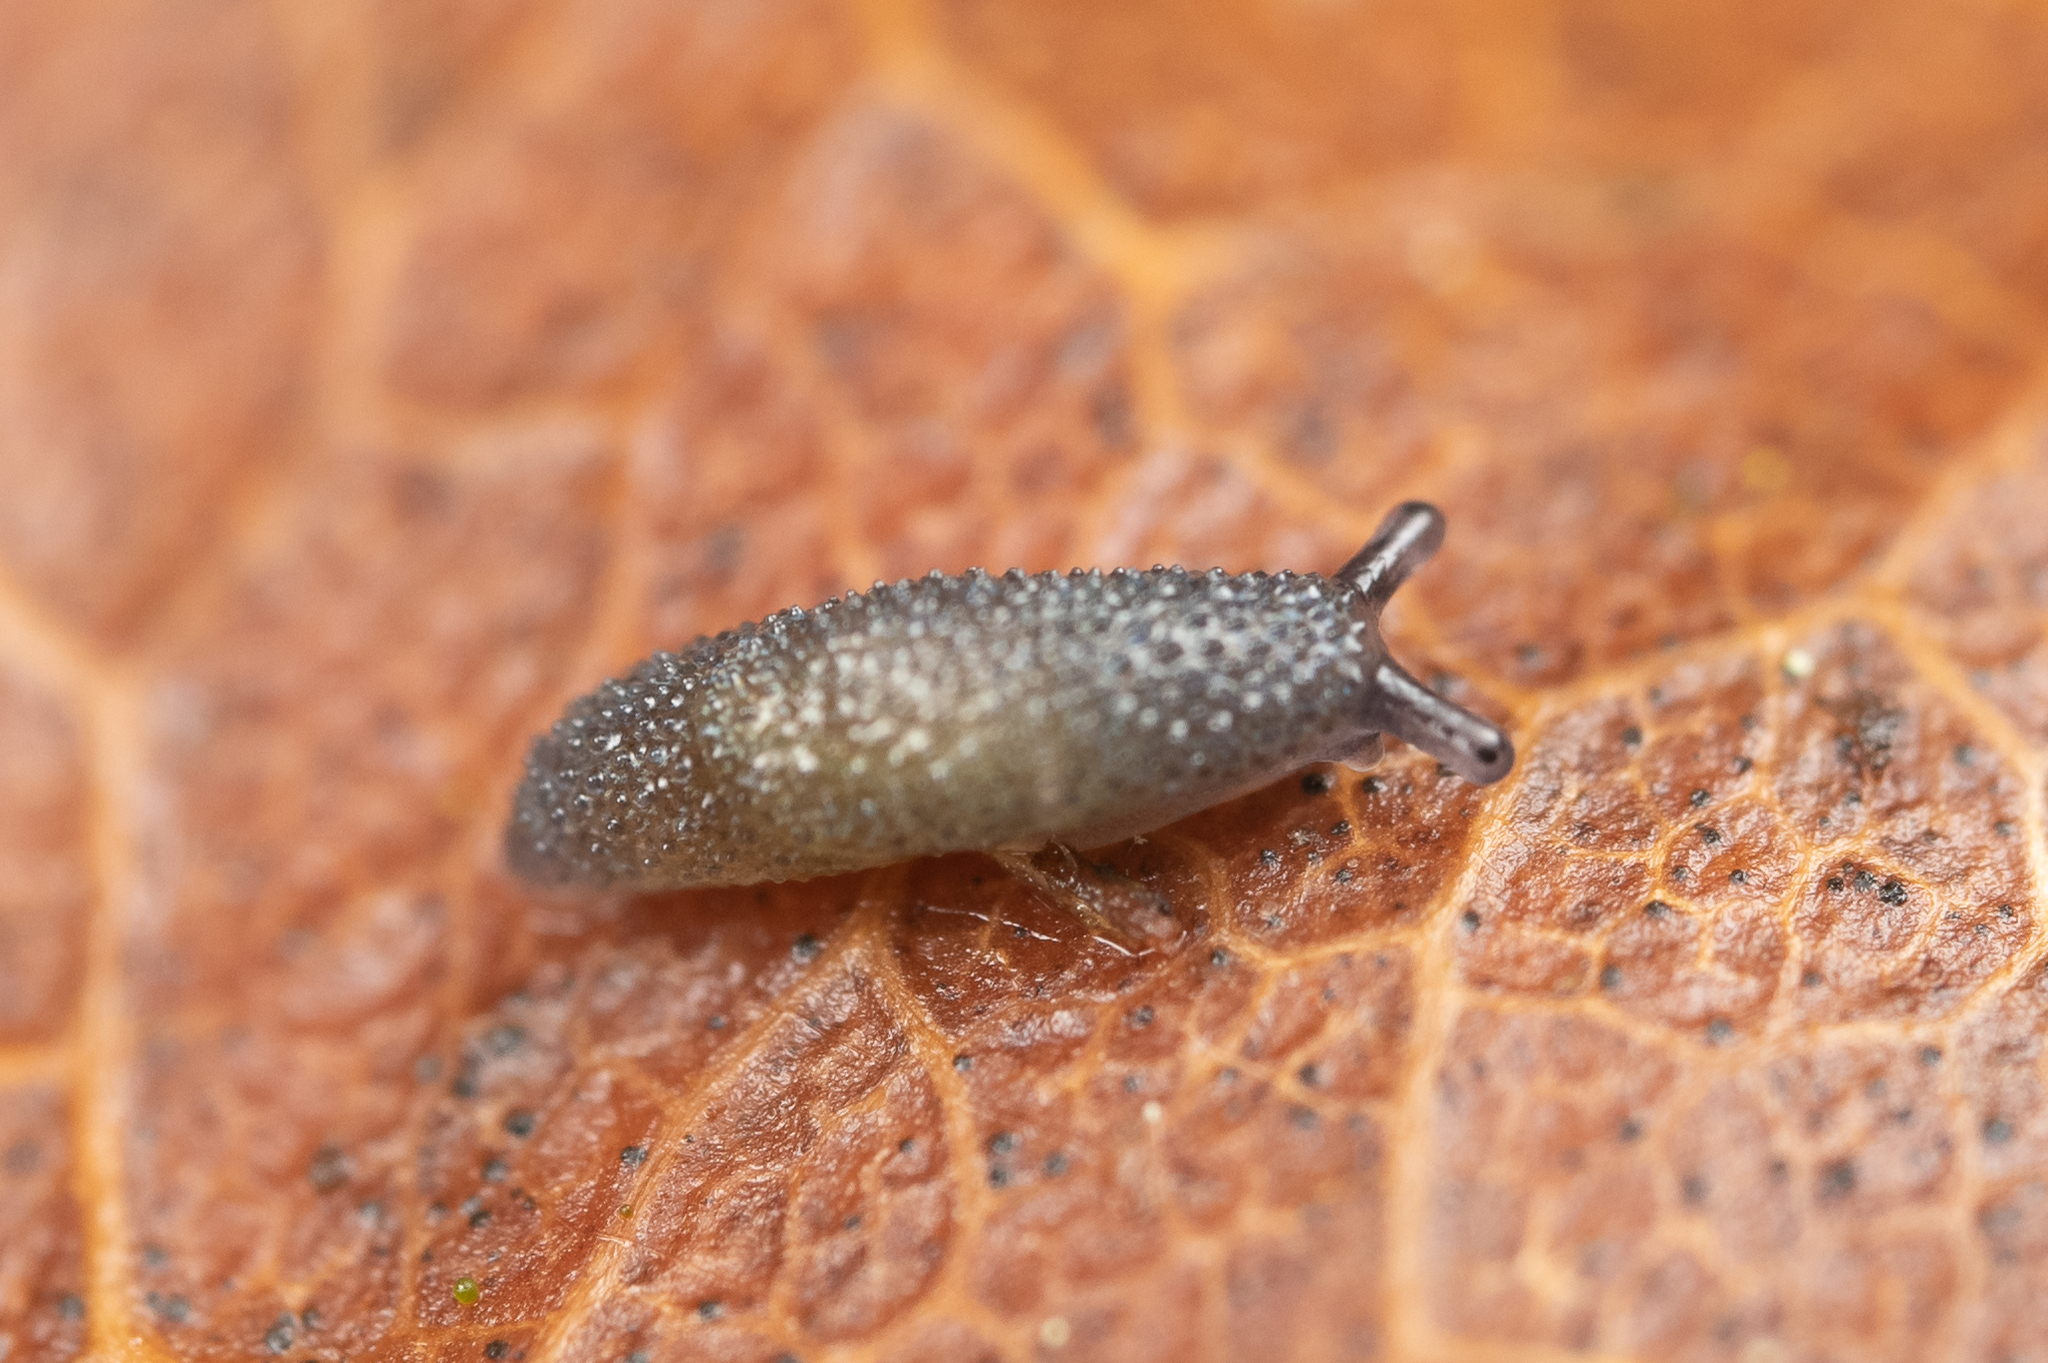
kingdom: Animalia
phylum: Mollusca
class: Gastropoda
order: Stylommatophora
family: Ariolimacidae
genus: Prophysaon
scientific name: Prophysaon dubium
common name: Papillose taildropper
